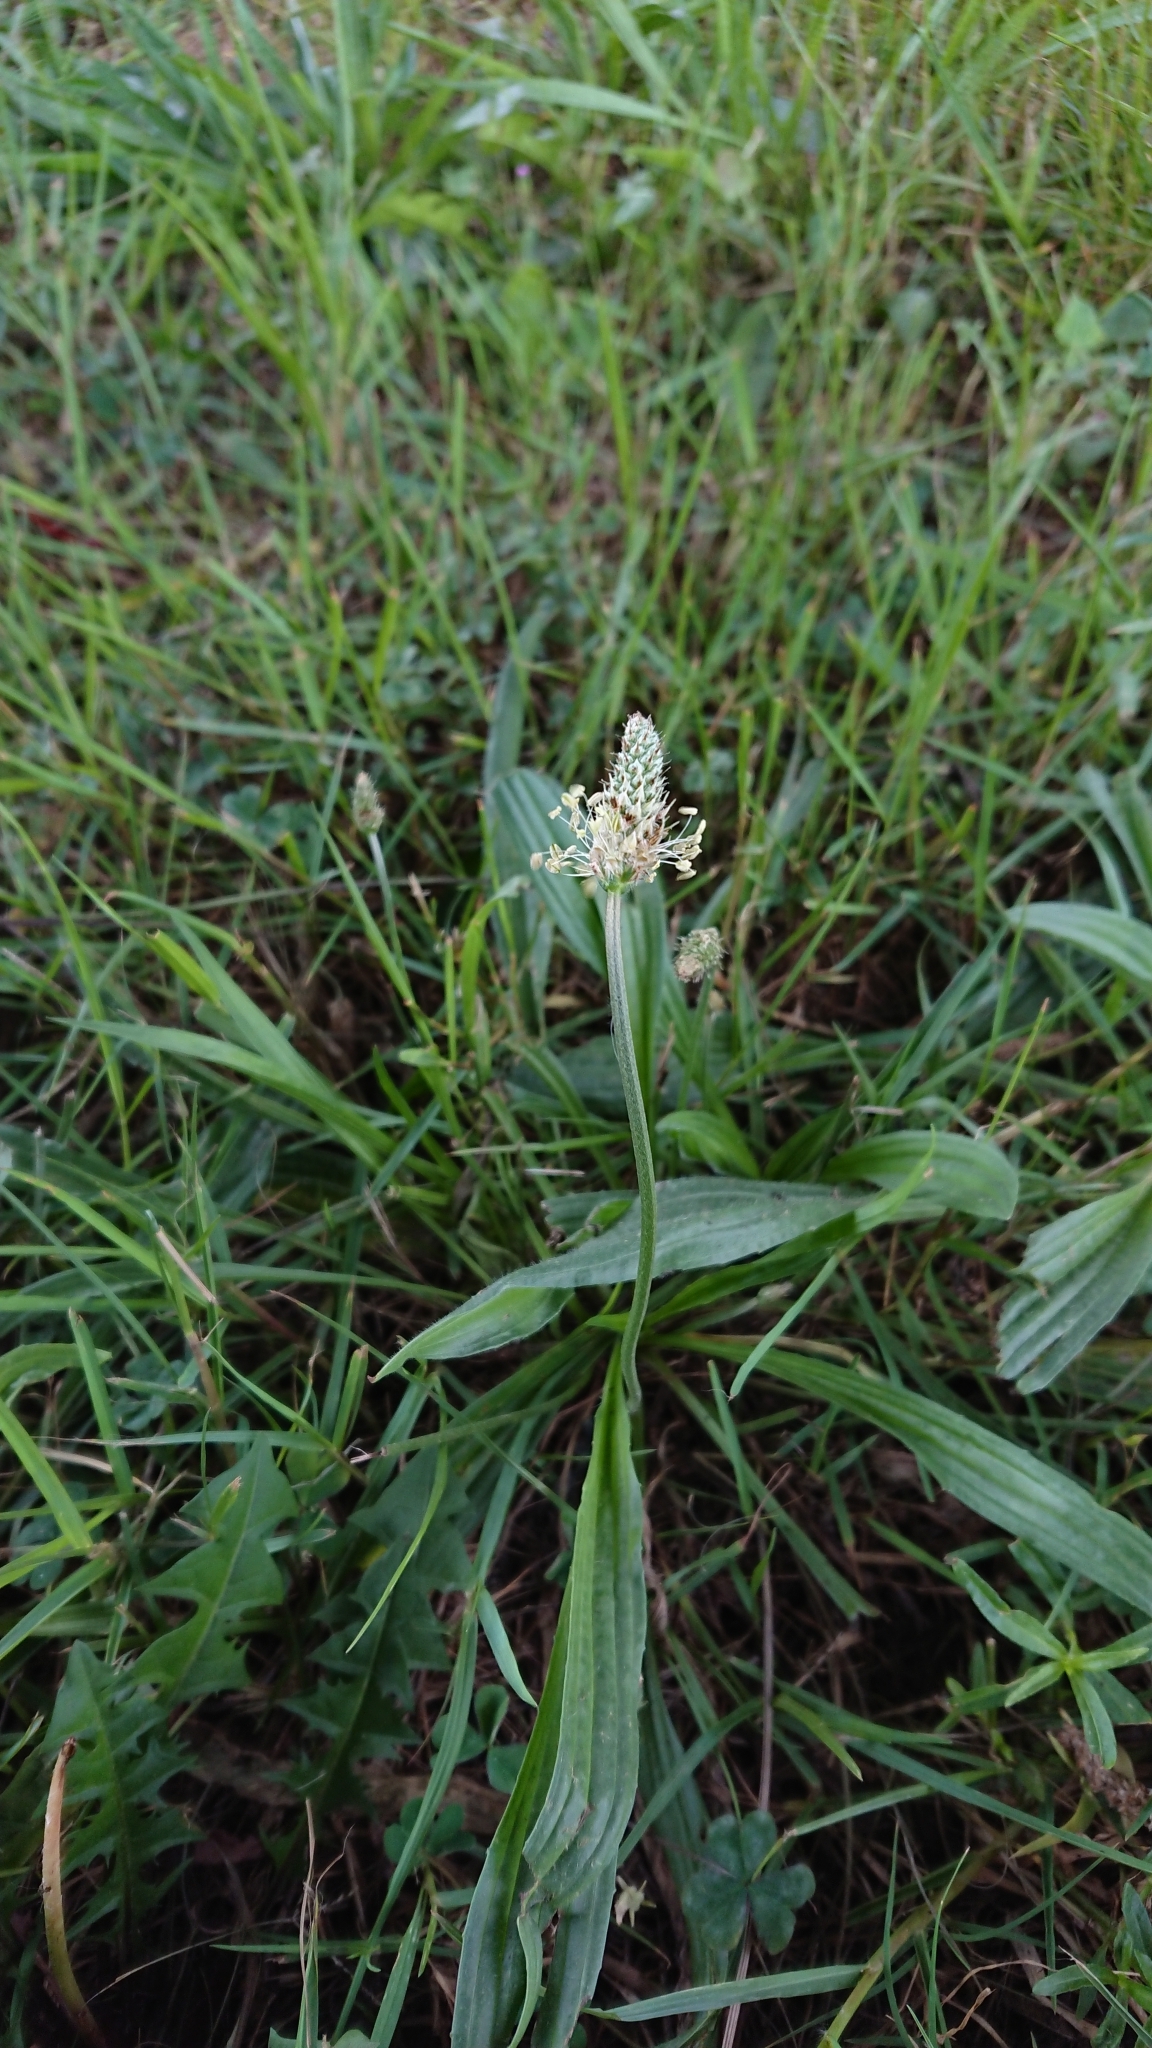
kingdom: Plantae
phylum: Tracheophyta
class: Magnoliopsida
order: Lamiales
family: Plantaginaceae
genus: Plantago
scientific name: Plantago lanceolata
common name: Ribwort plantain
